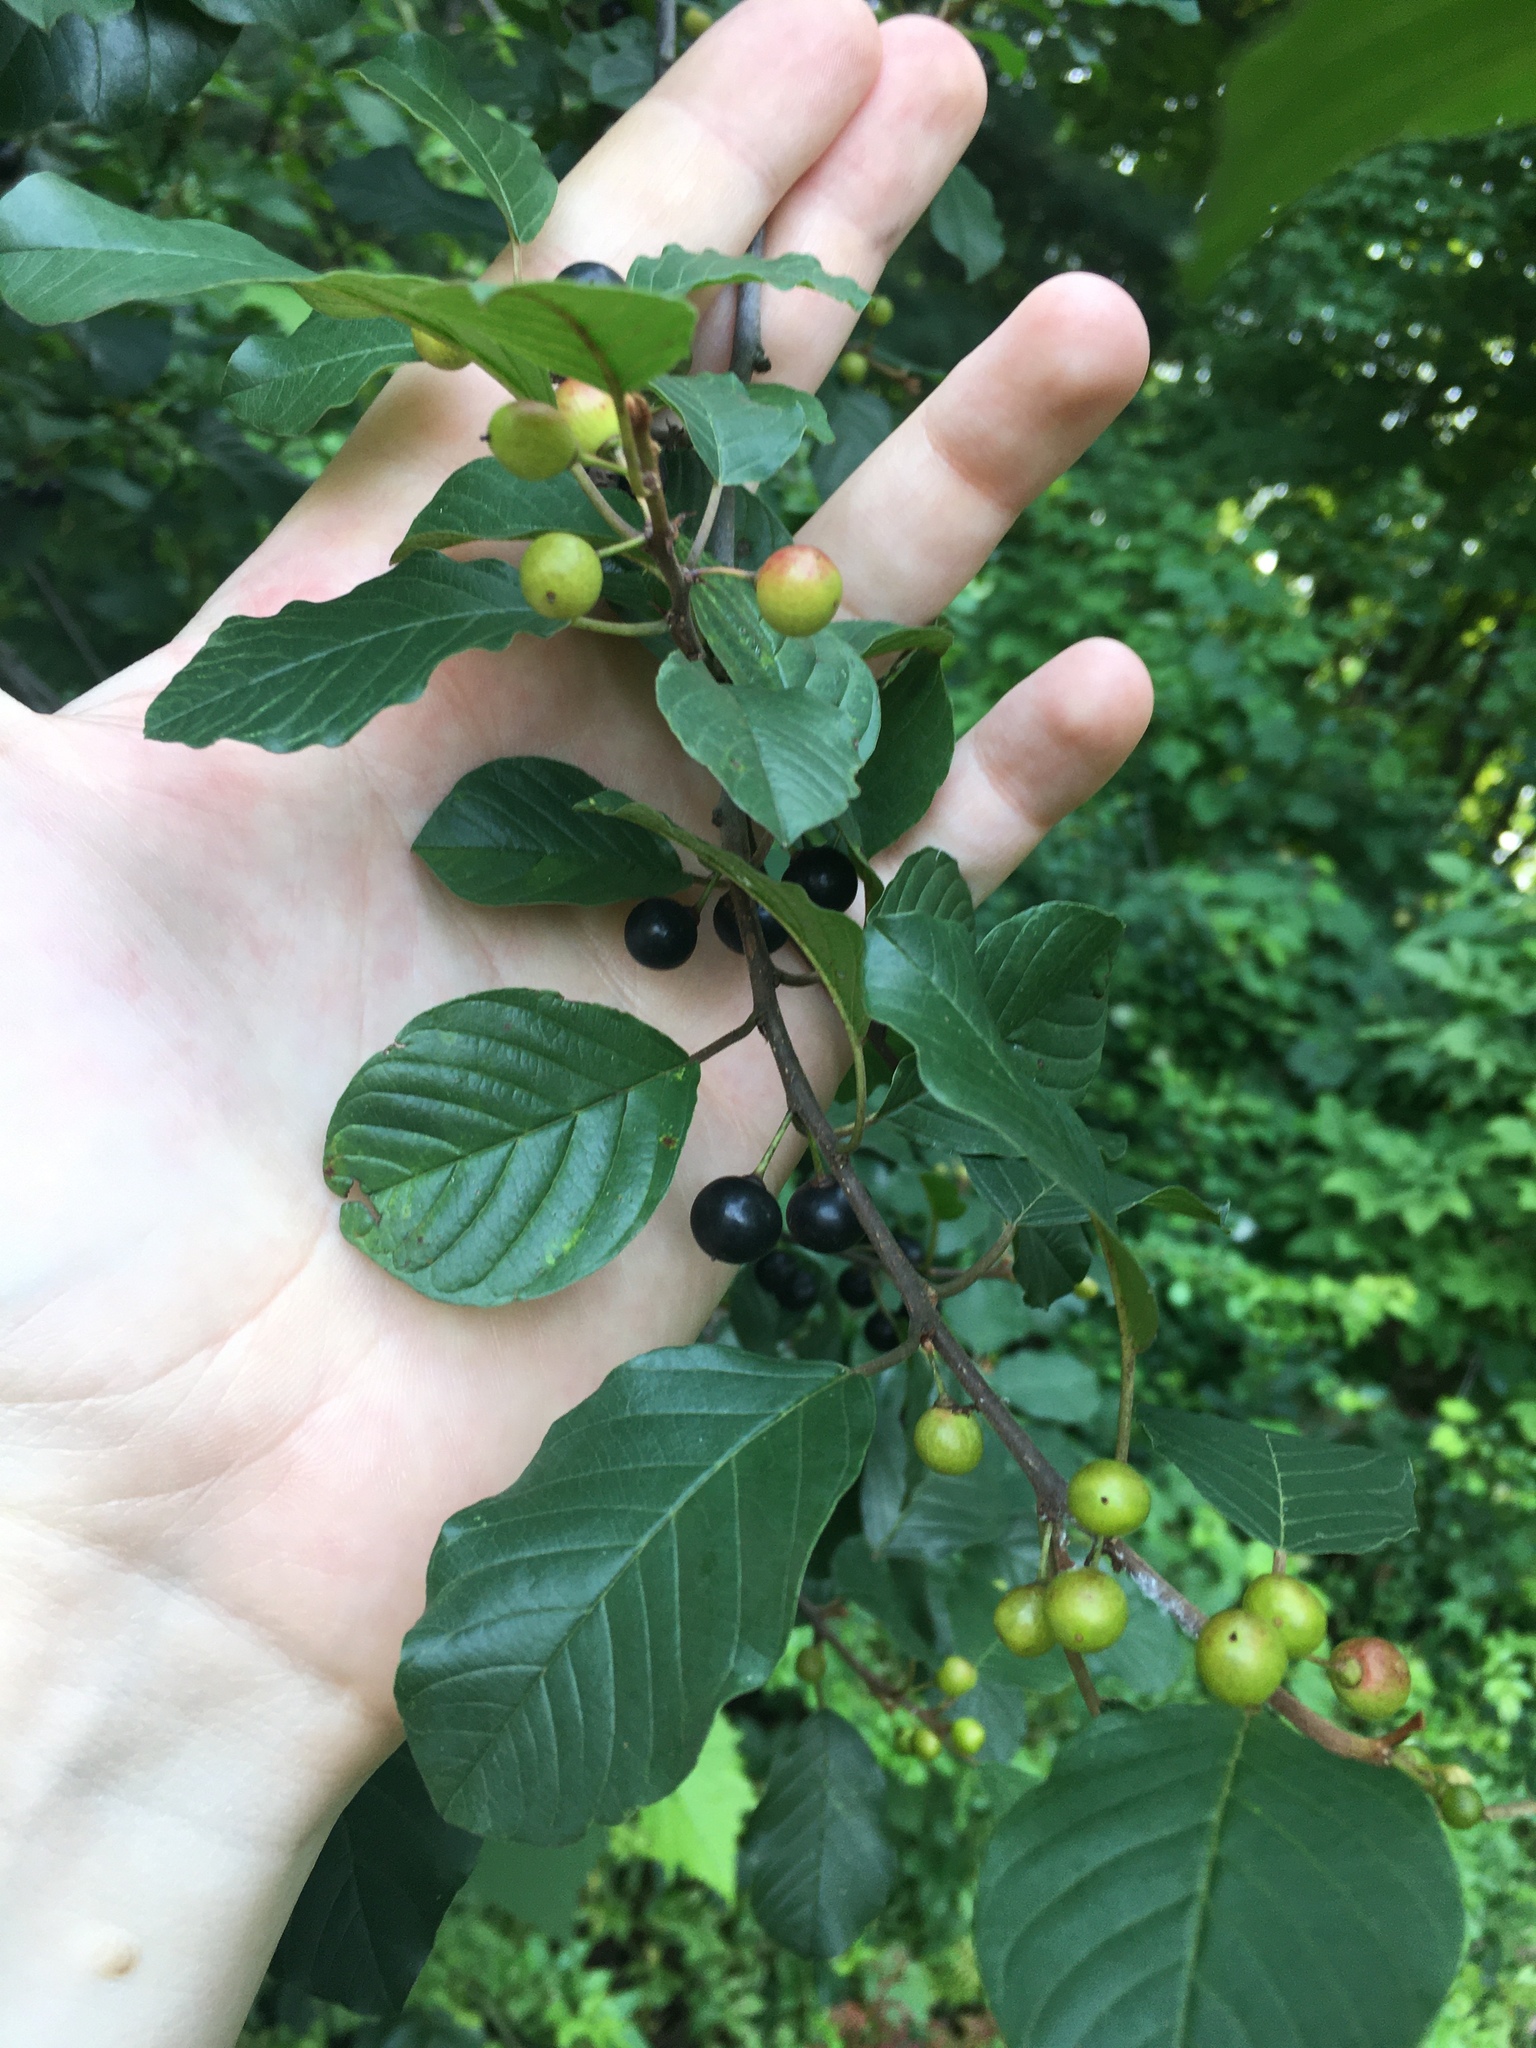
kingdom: Plantae
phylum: Tracheophyta
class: Magnoliopsida
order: Rosales
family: Rhamnaceae
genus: Frangula
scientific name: Frangula alnus
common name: Alder buckthorn
